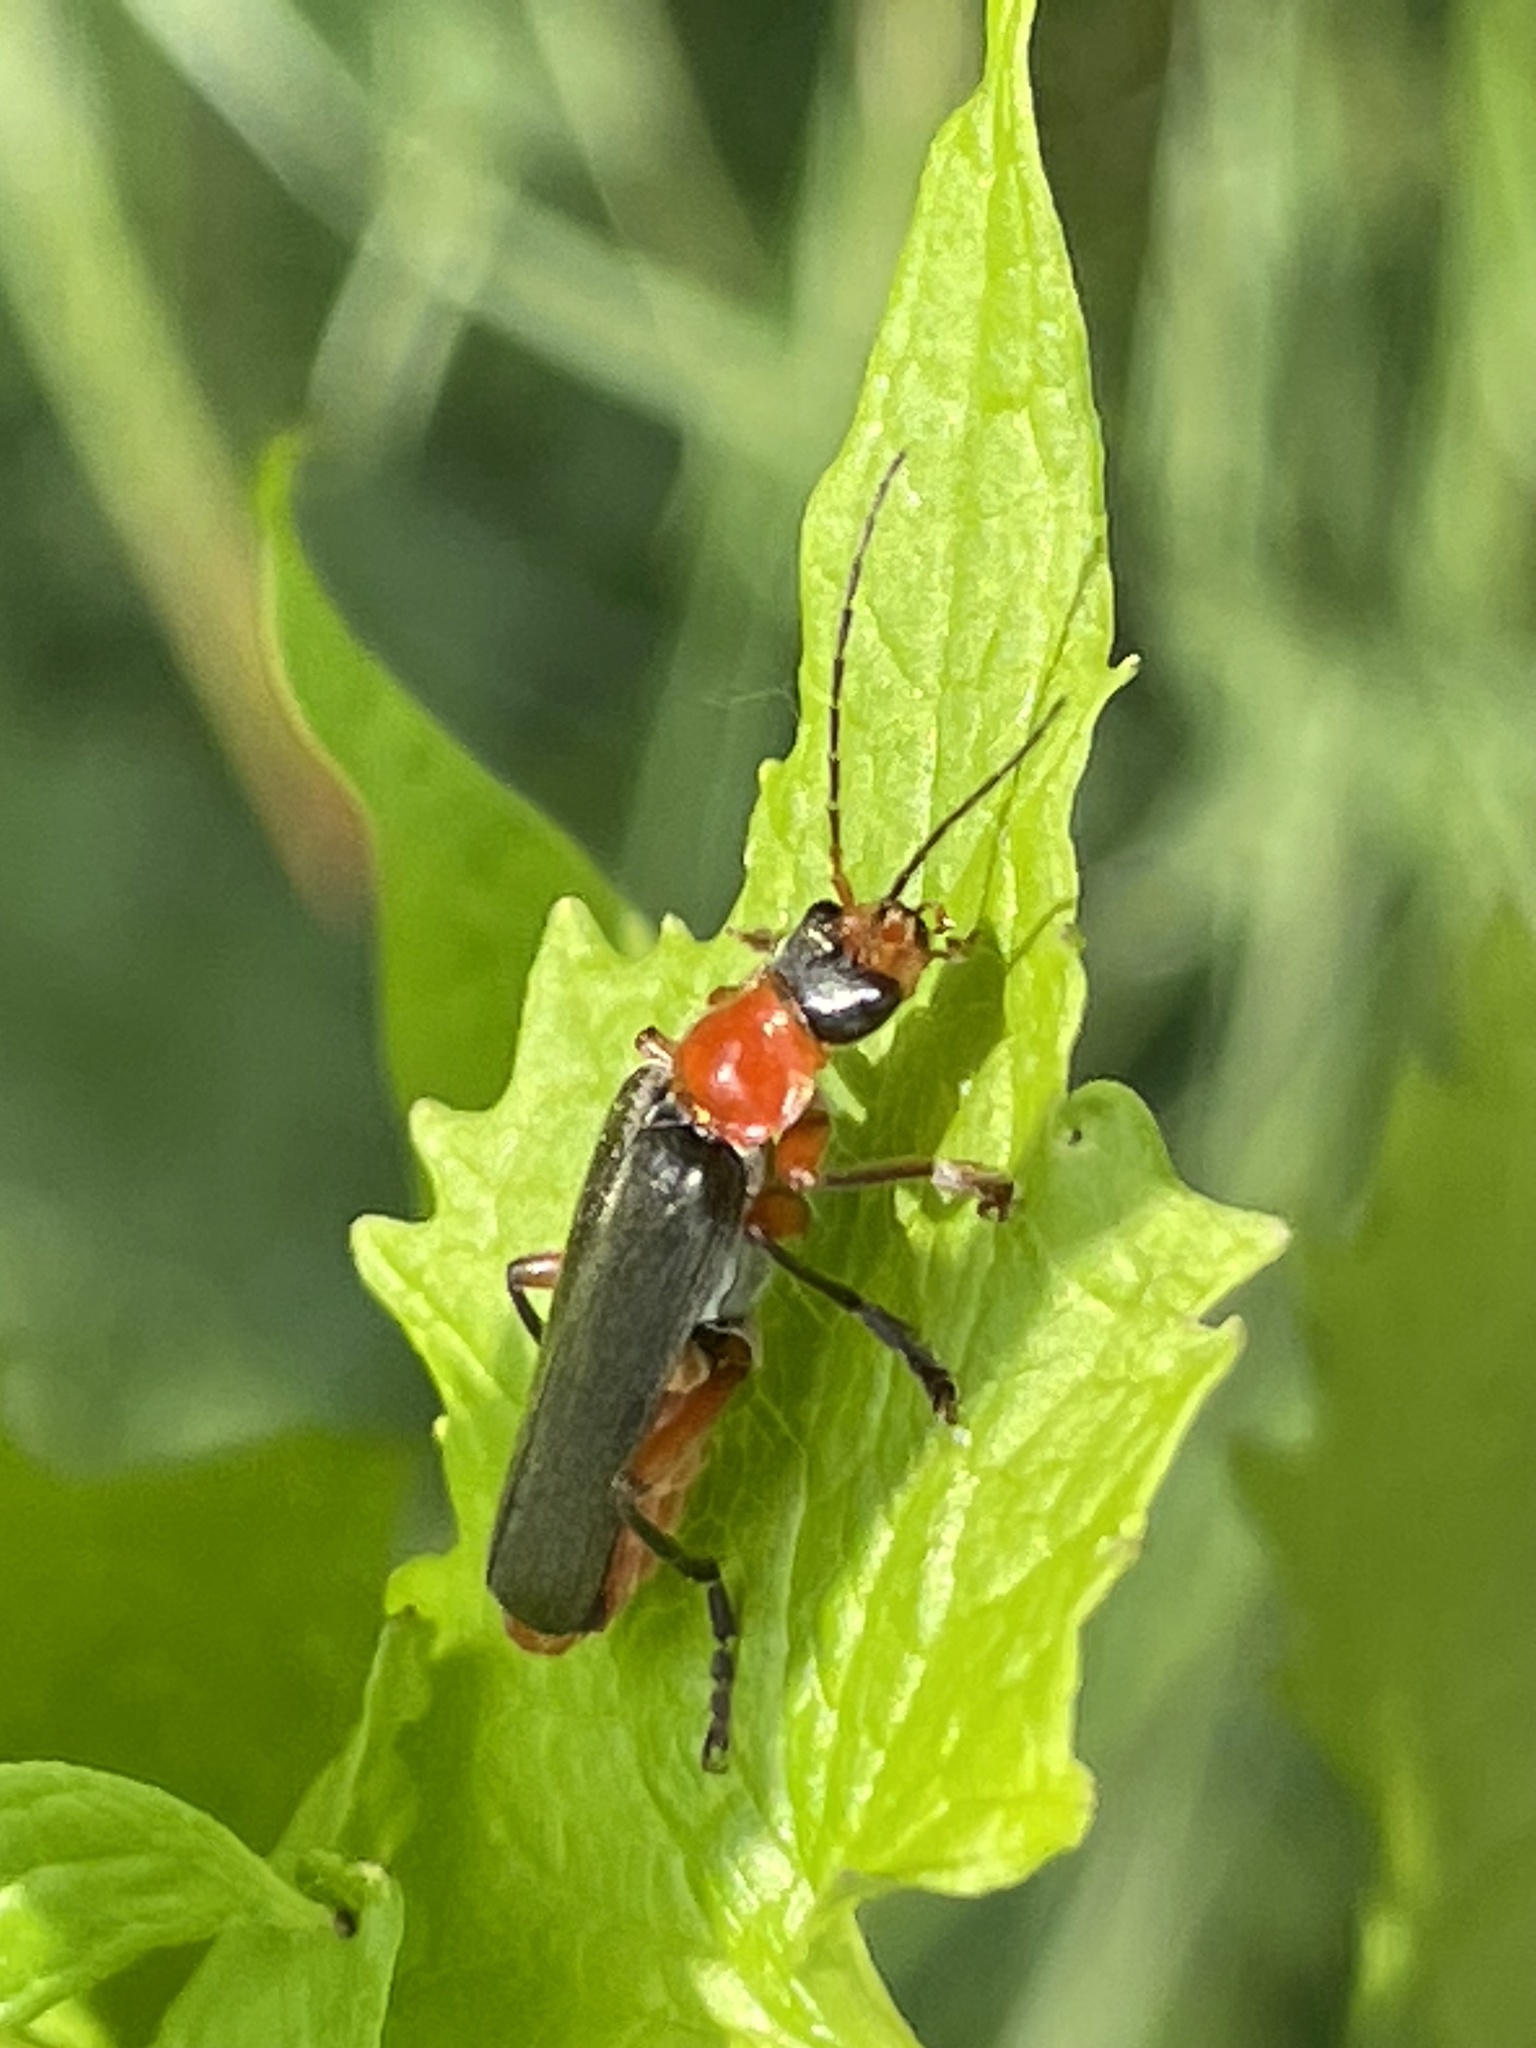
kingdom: Animalia
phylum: Arthropoda
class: Insecta
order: Coleoptera
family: Cantharidae
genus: Cantharis
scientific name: Cantharis pellucida
